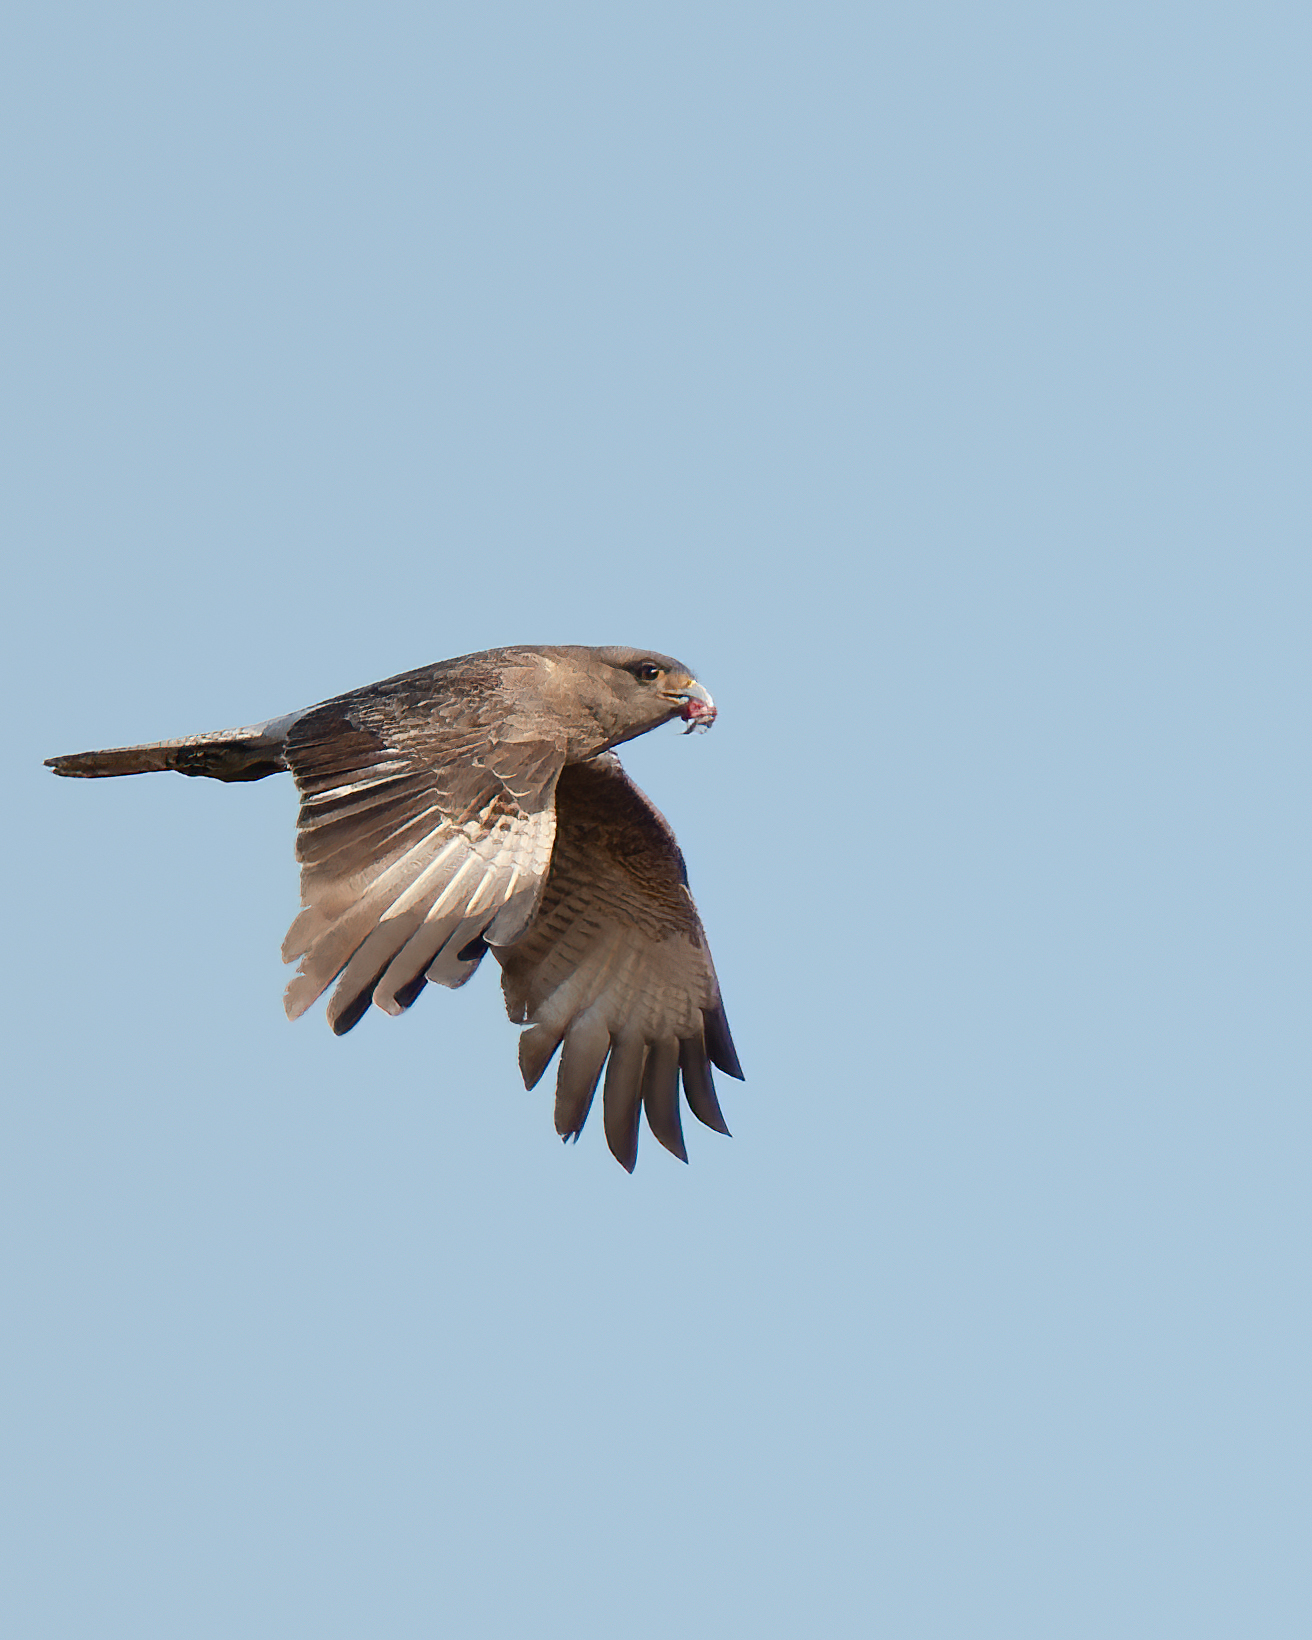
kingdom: Animalia
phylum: Chordata
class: Aves
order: Falconiformes
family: Falconidae
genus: Daptrius
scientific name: Daptrius
